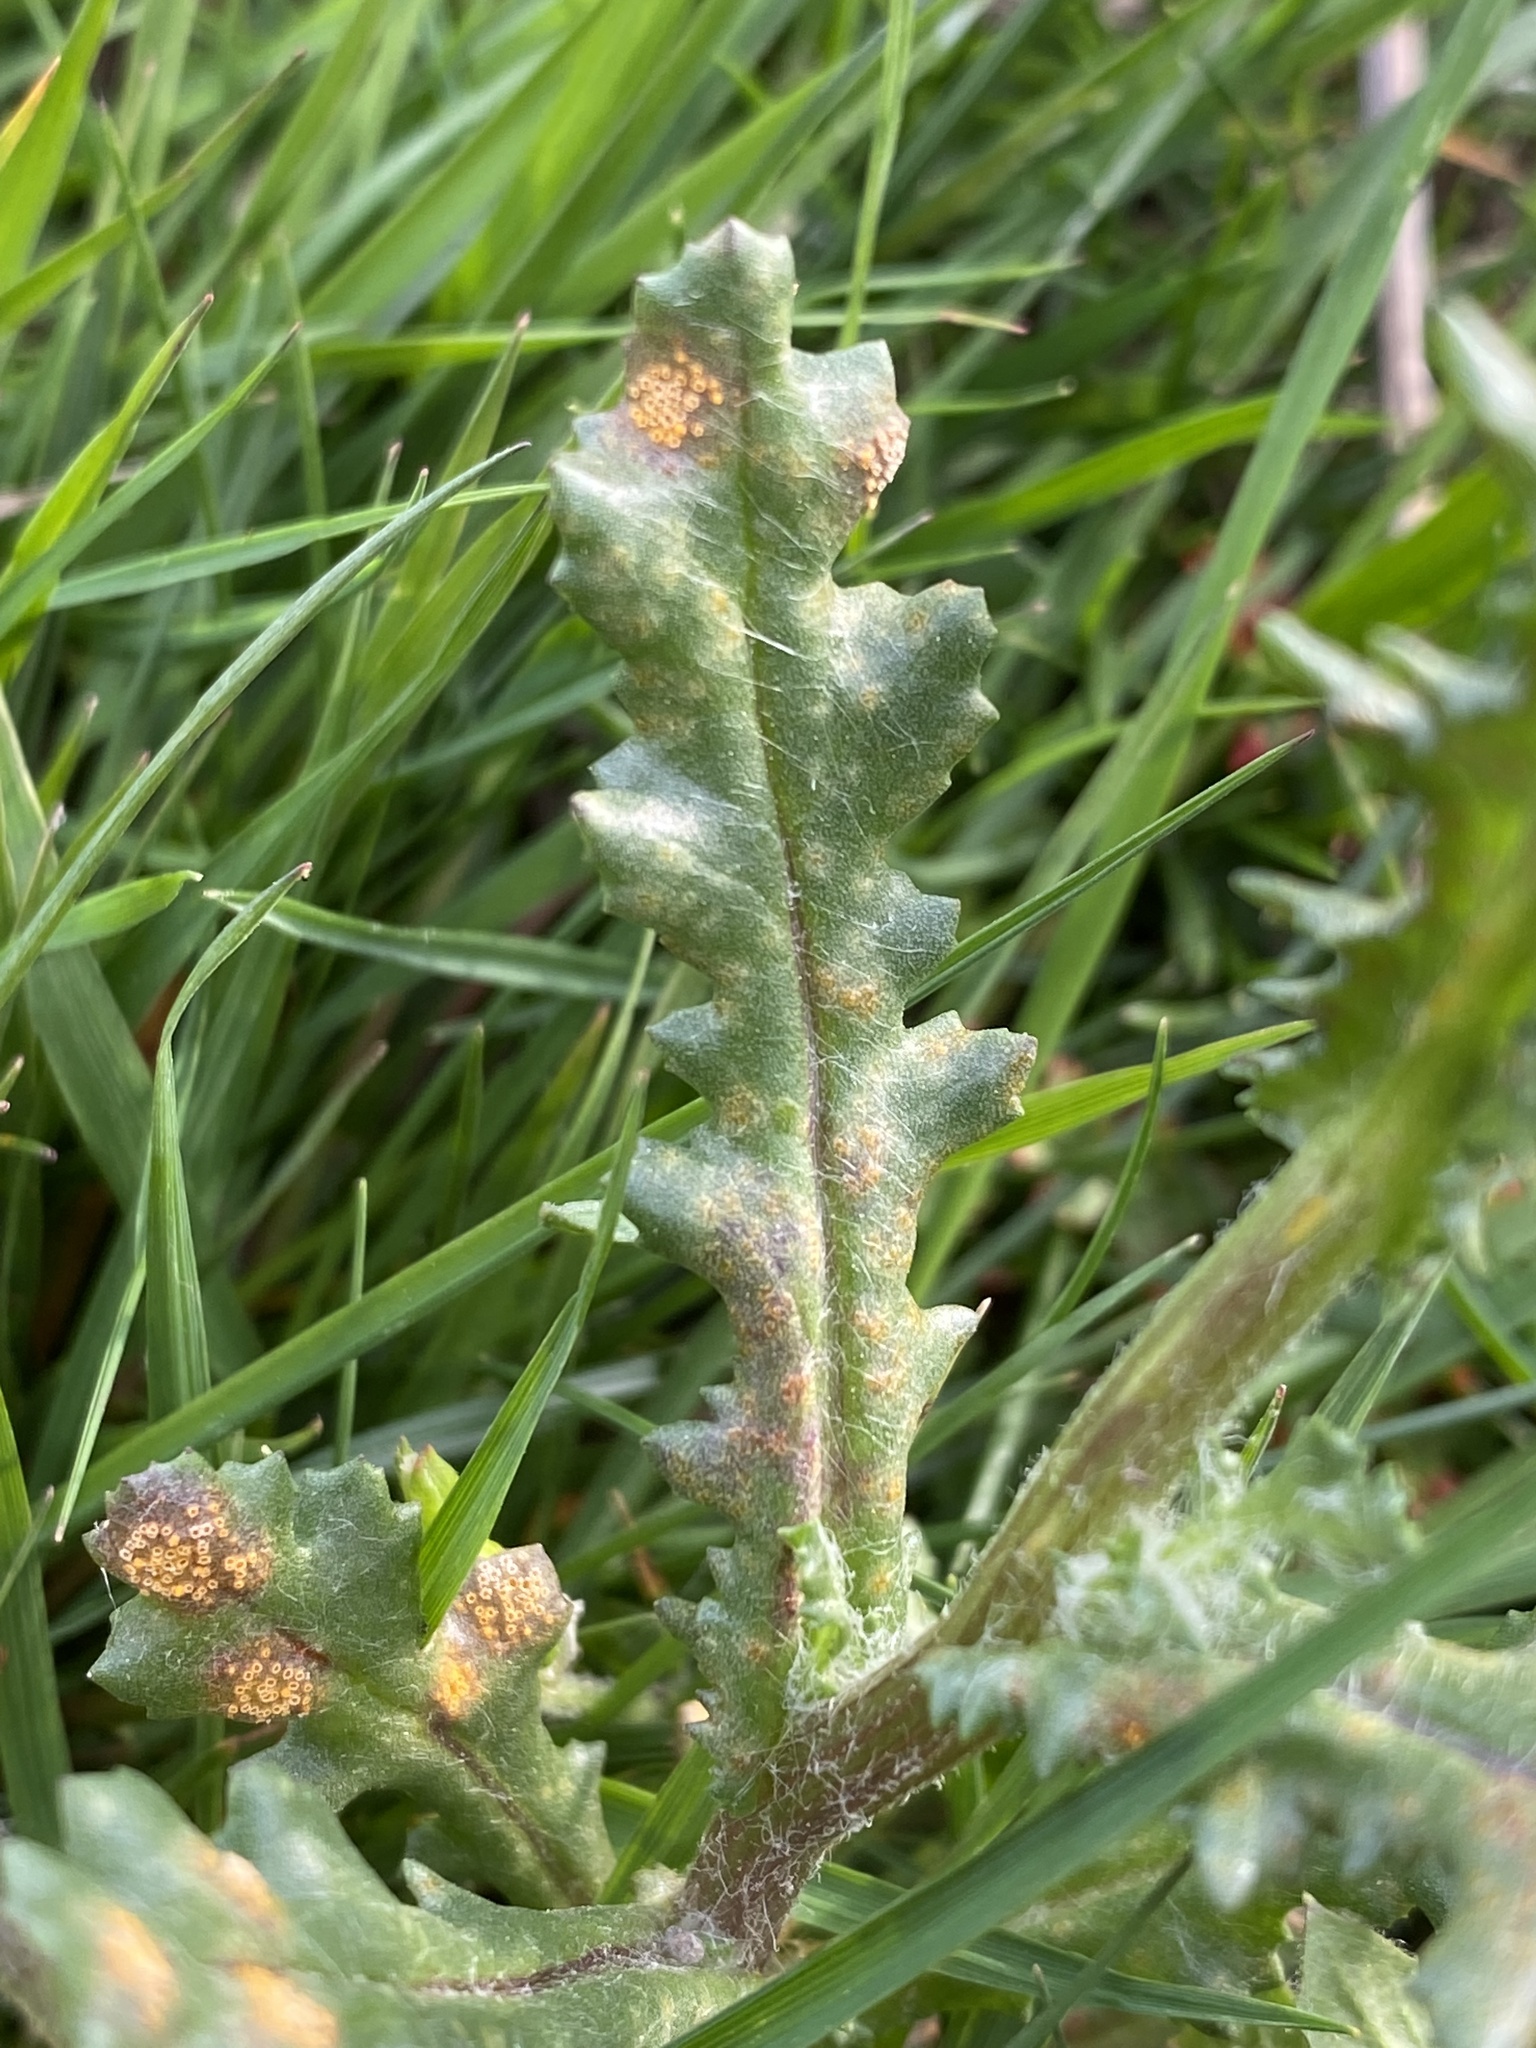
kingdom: Fungi
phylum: Basidiomycota
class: Pucciniomycetes
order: Pucciniales
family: Pucciniaceae
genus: Puccinia
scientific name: Puccinia lagenophorae
